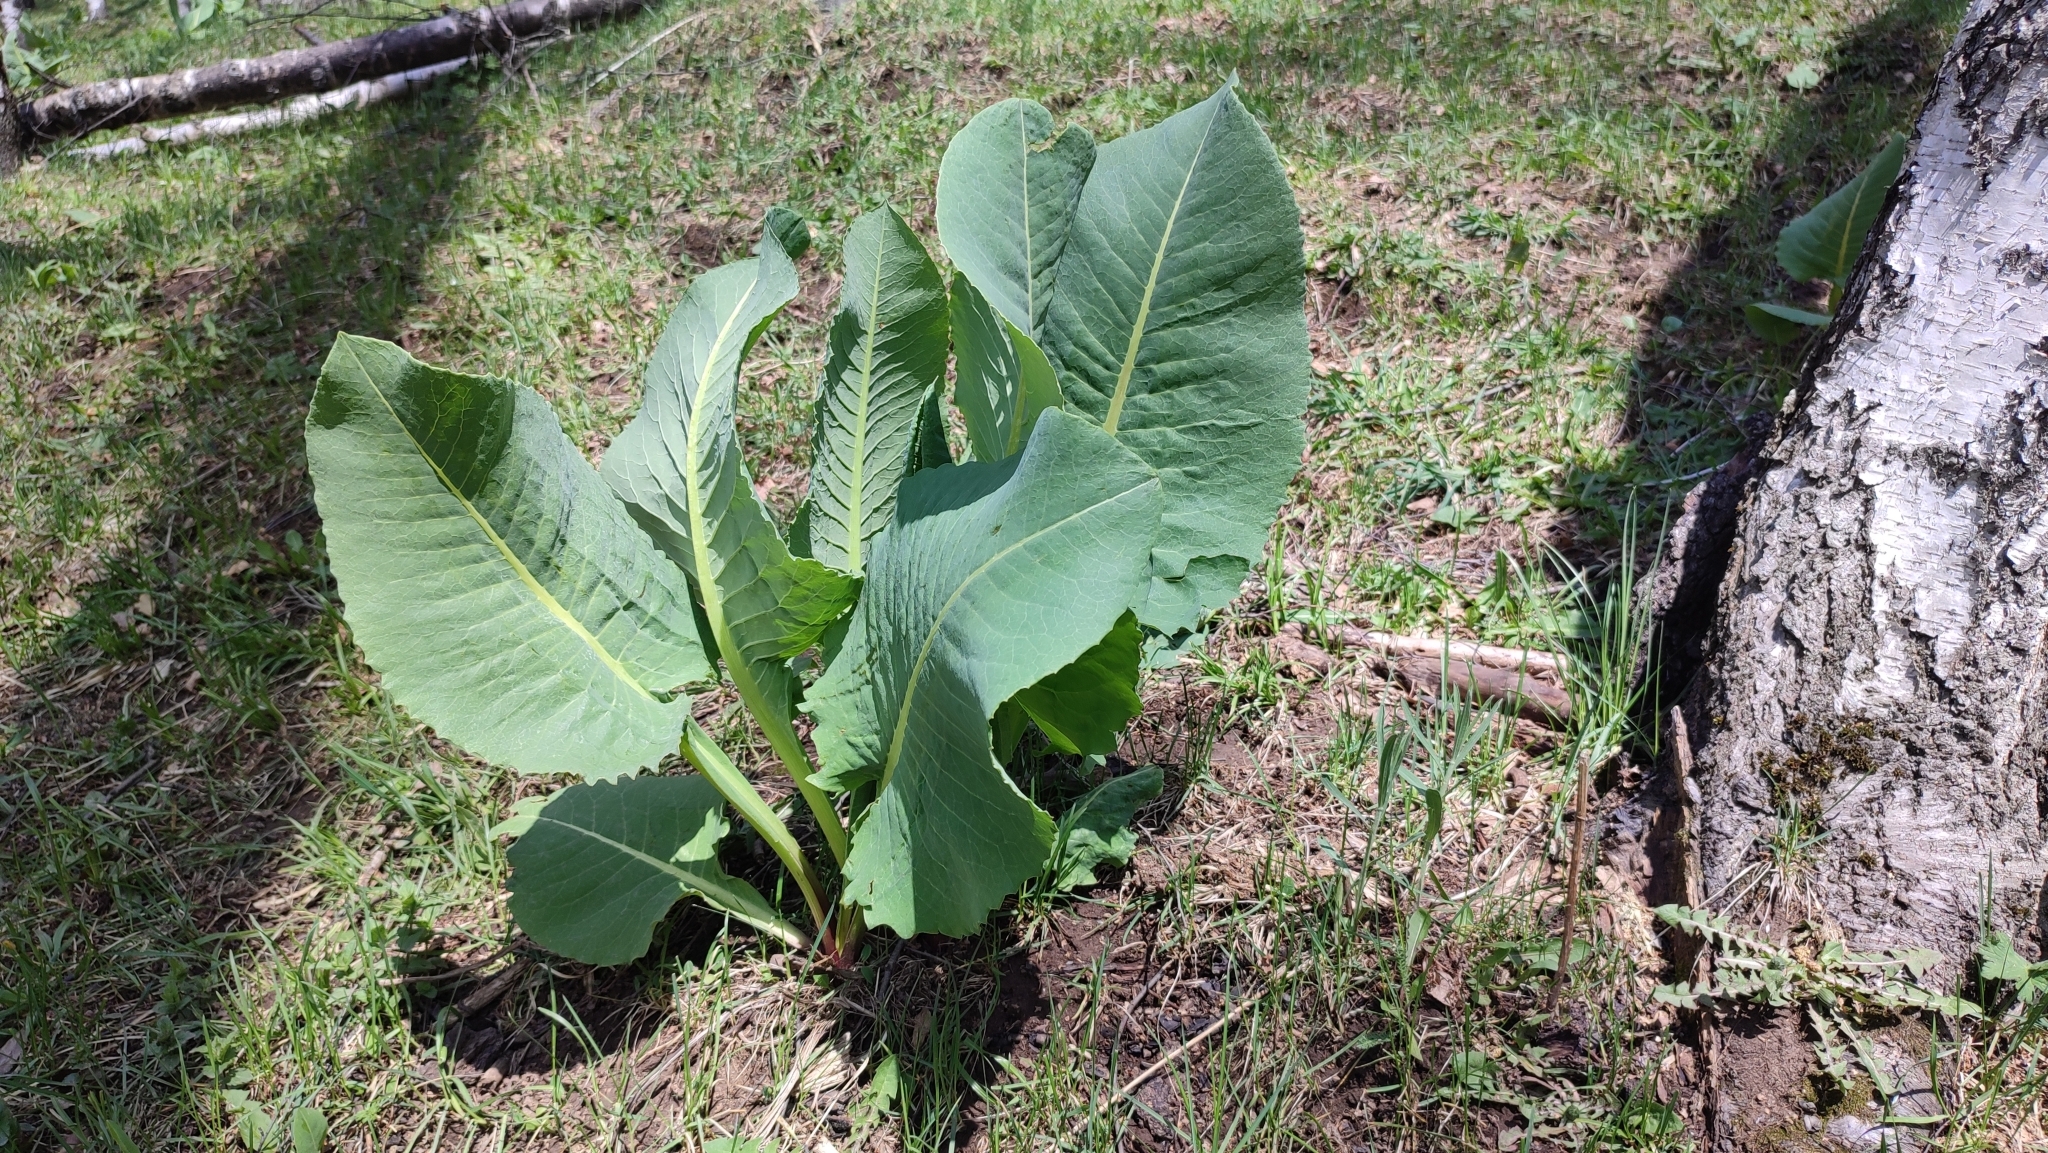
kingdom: Plantae
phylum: Tracheophyta
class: Magnoliopsida
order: Asterales
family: Asteraceae
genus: Ligularia
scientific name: Ligularia heterophylla
